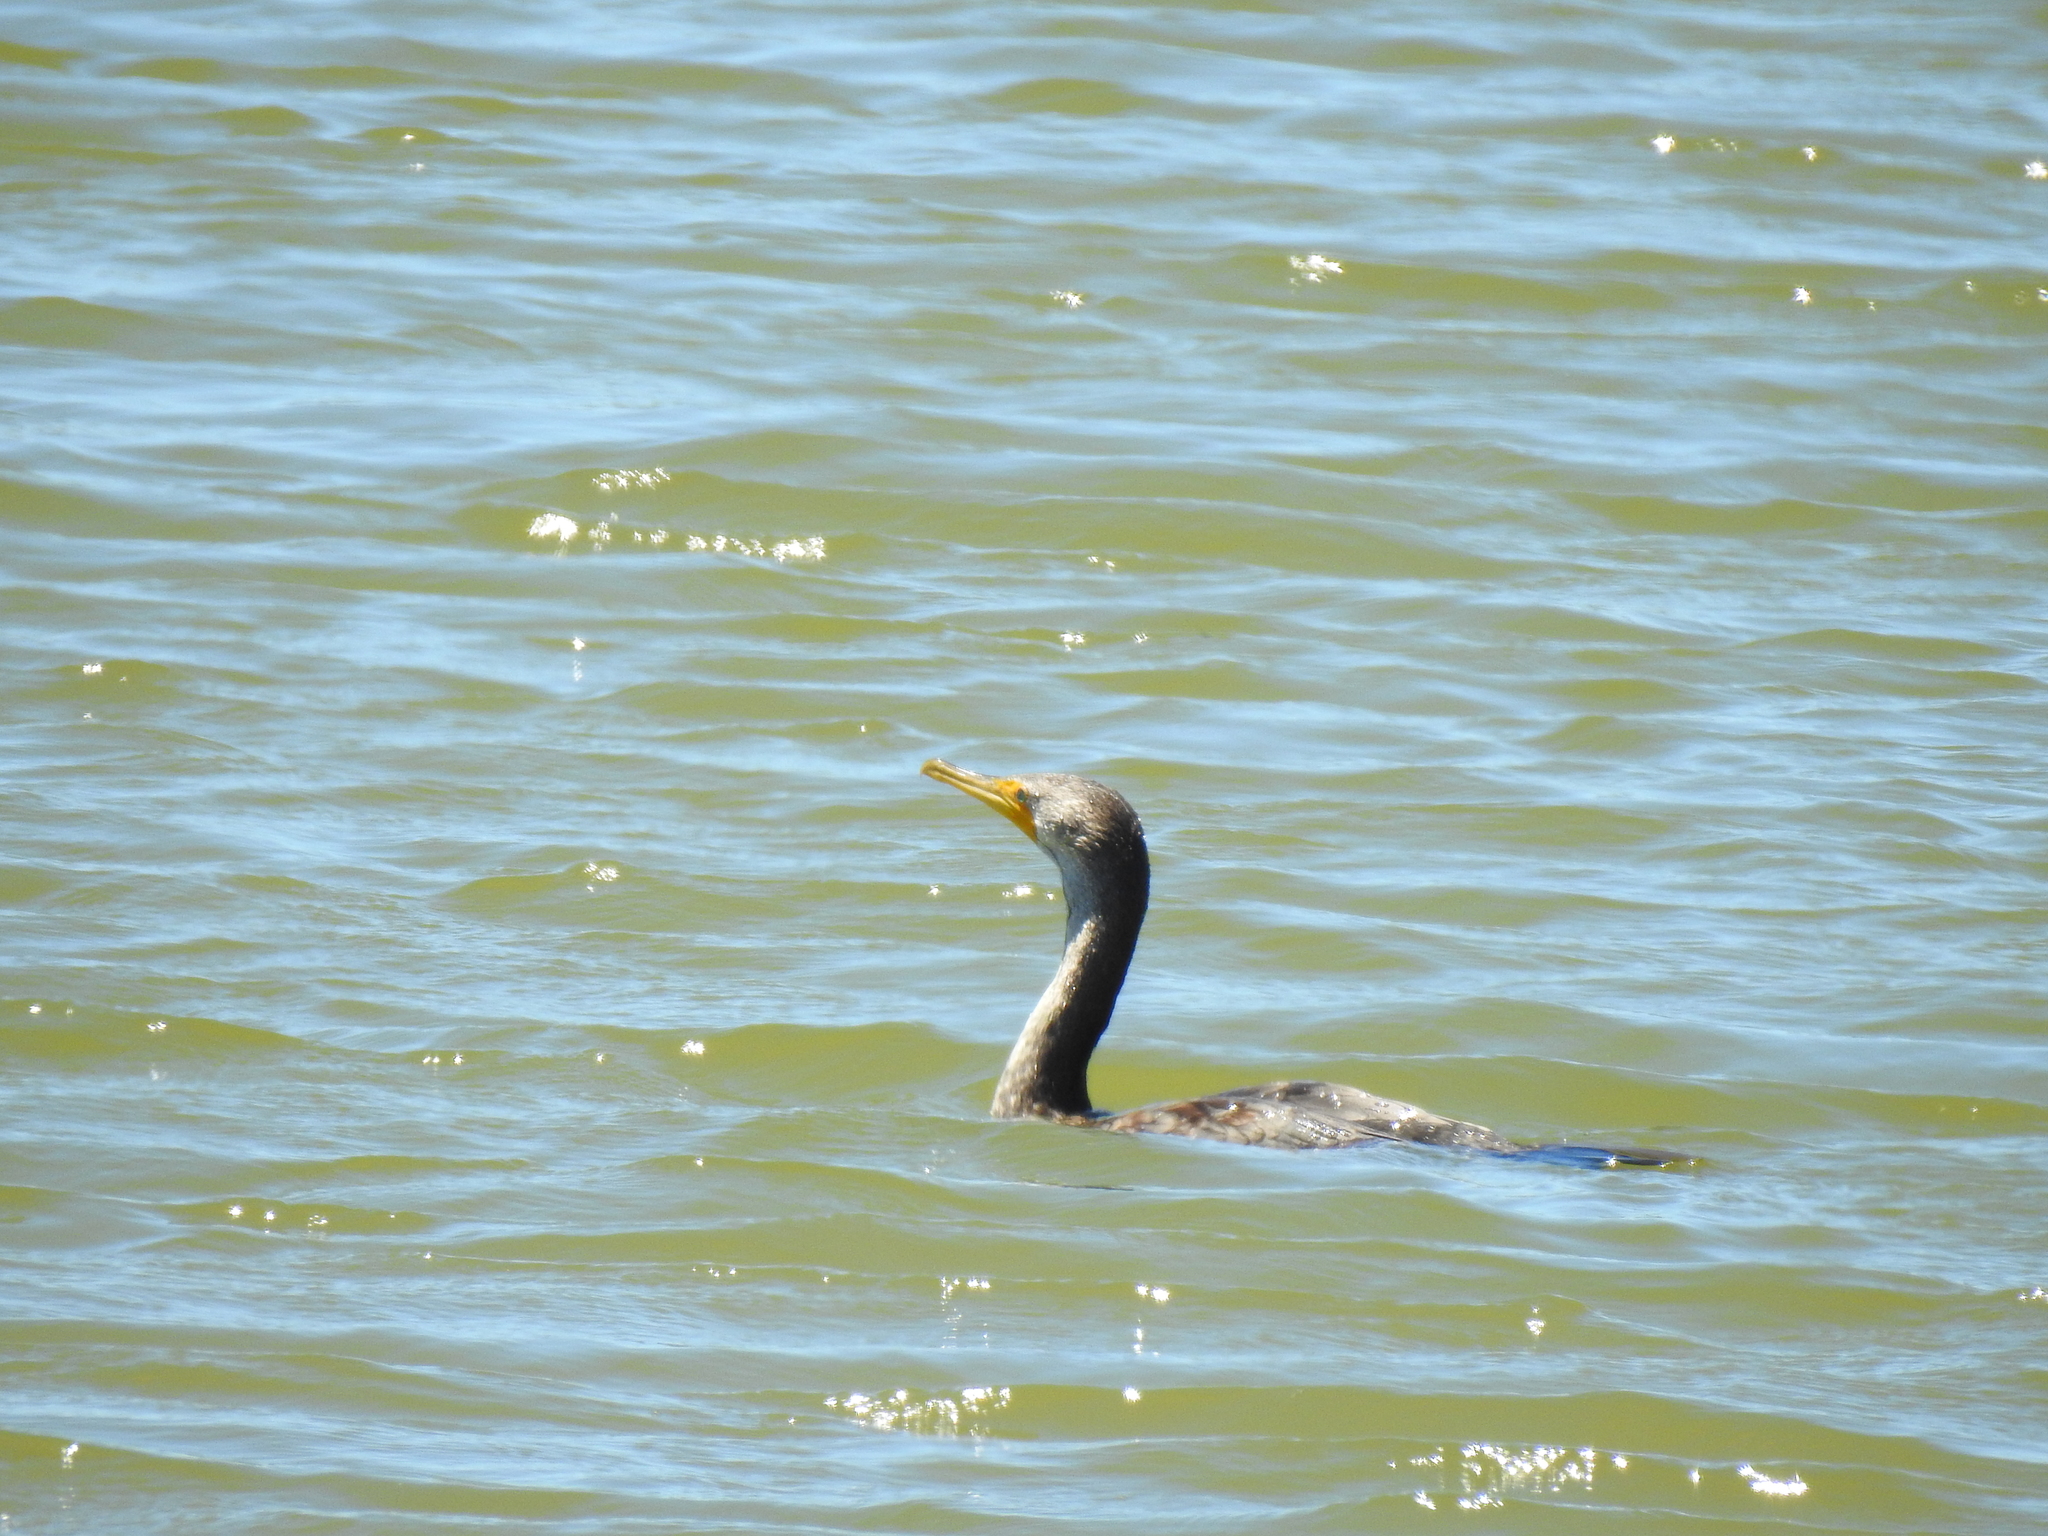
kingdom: Animalia
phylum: Chordata
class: Aves
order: Suliformes
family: Phalacrocoracidae
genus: Phalacrocorax
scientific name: Phalacrocorax auritus
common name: Double-crested cormorant
